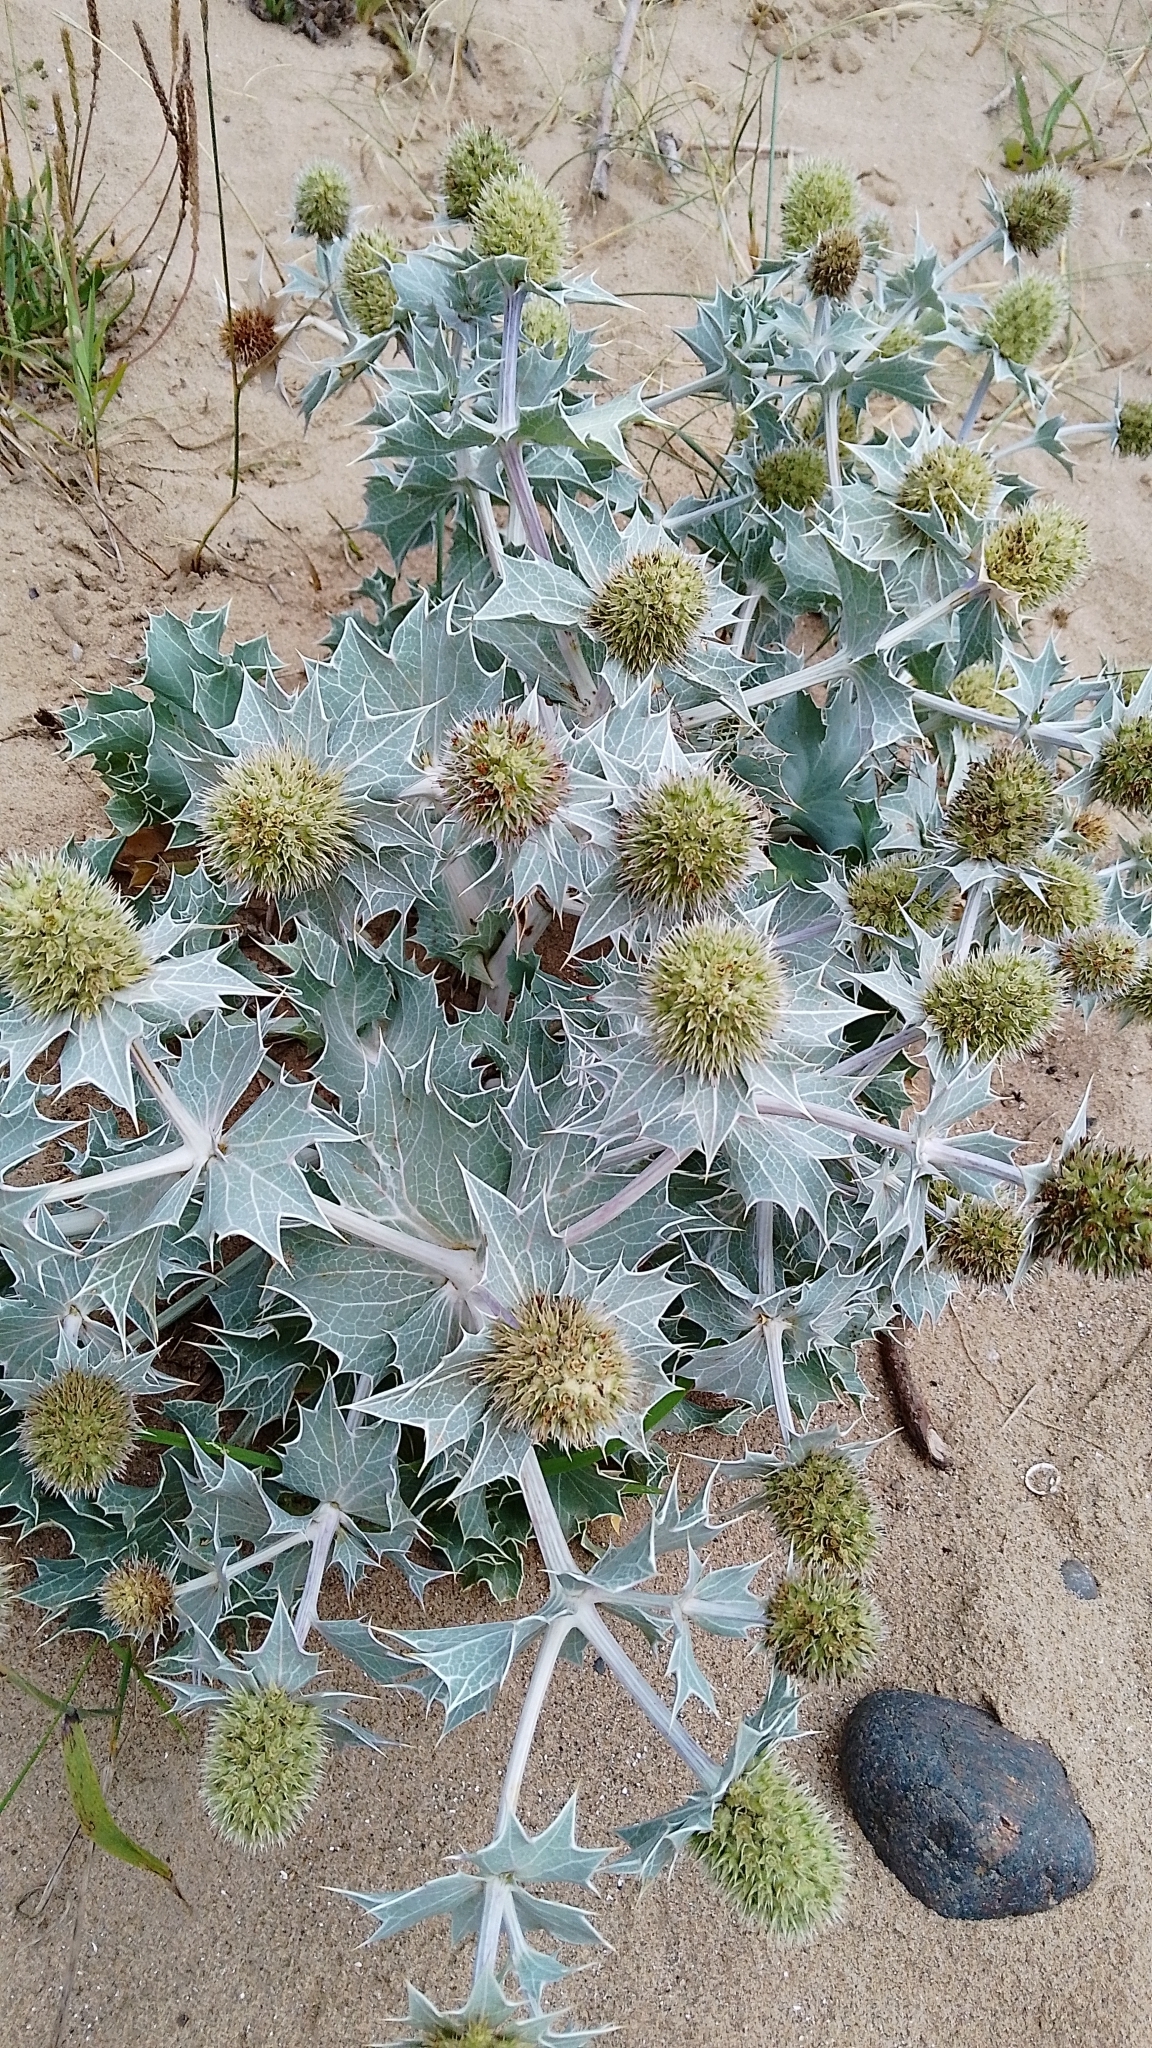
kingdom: Plantae
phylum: Tracheophyta
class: Magnoliopsida
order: Apiales
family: Apiaceae
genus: Eryngium
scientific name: Eryngium maritimum
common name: Sea-holly
